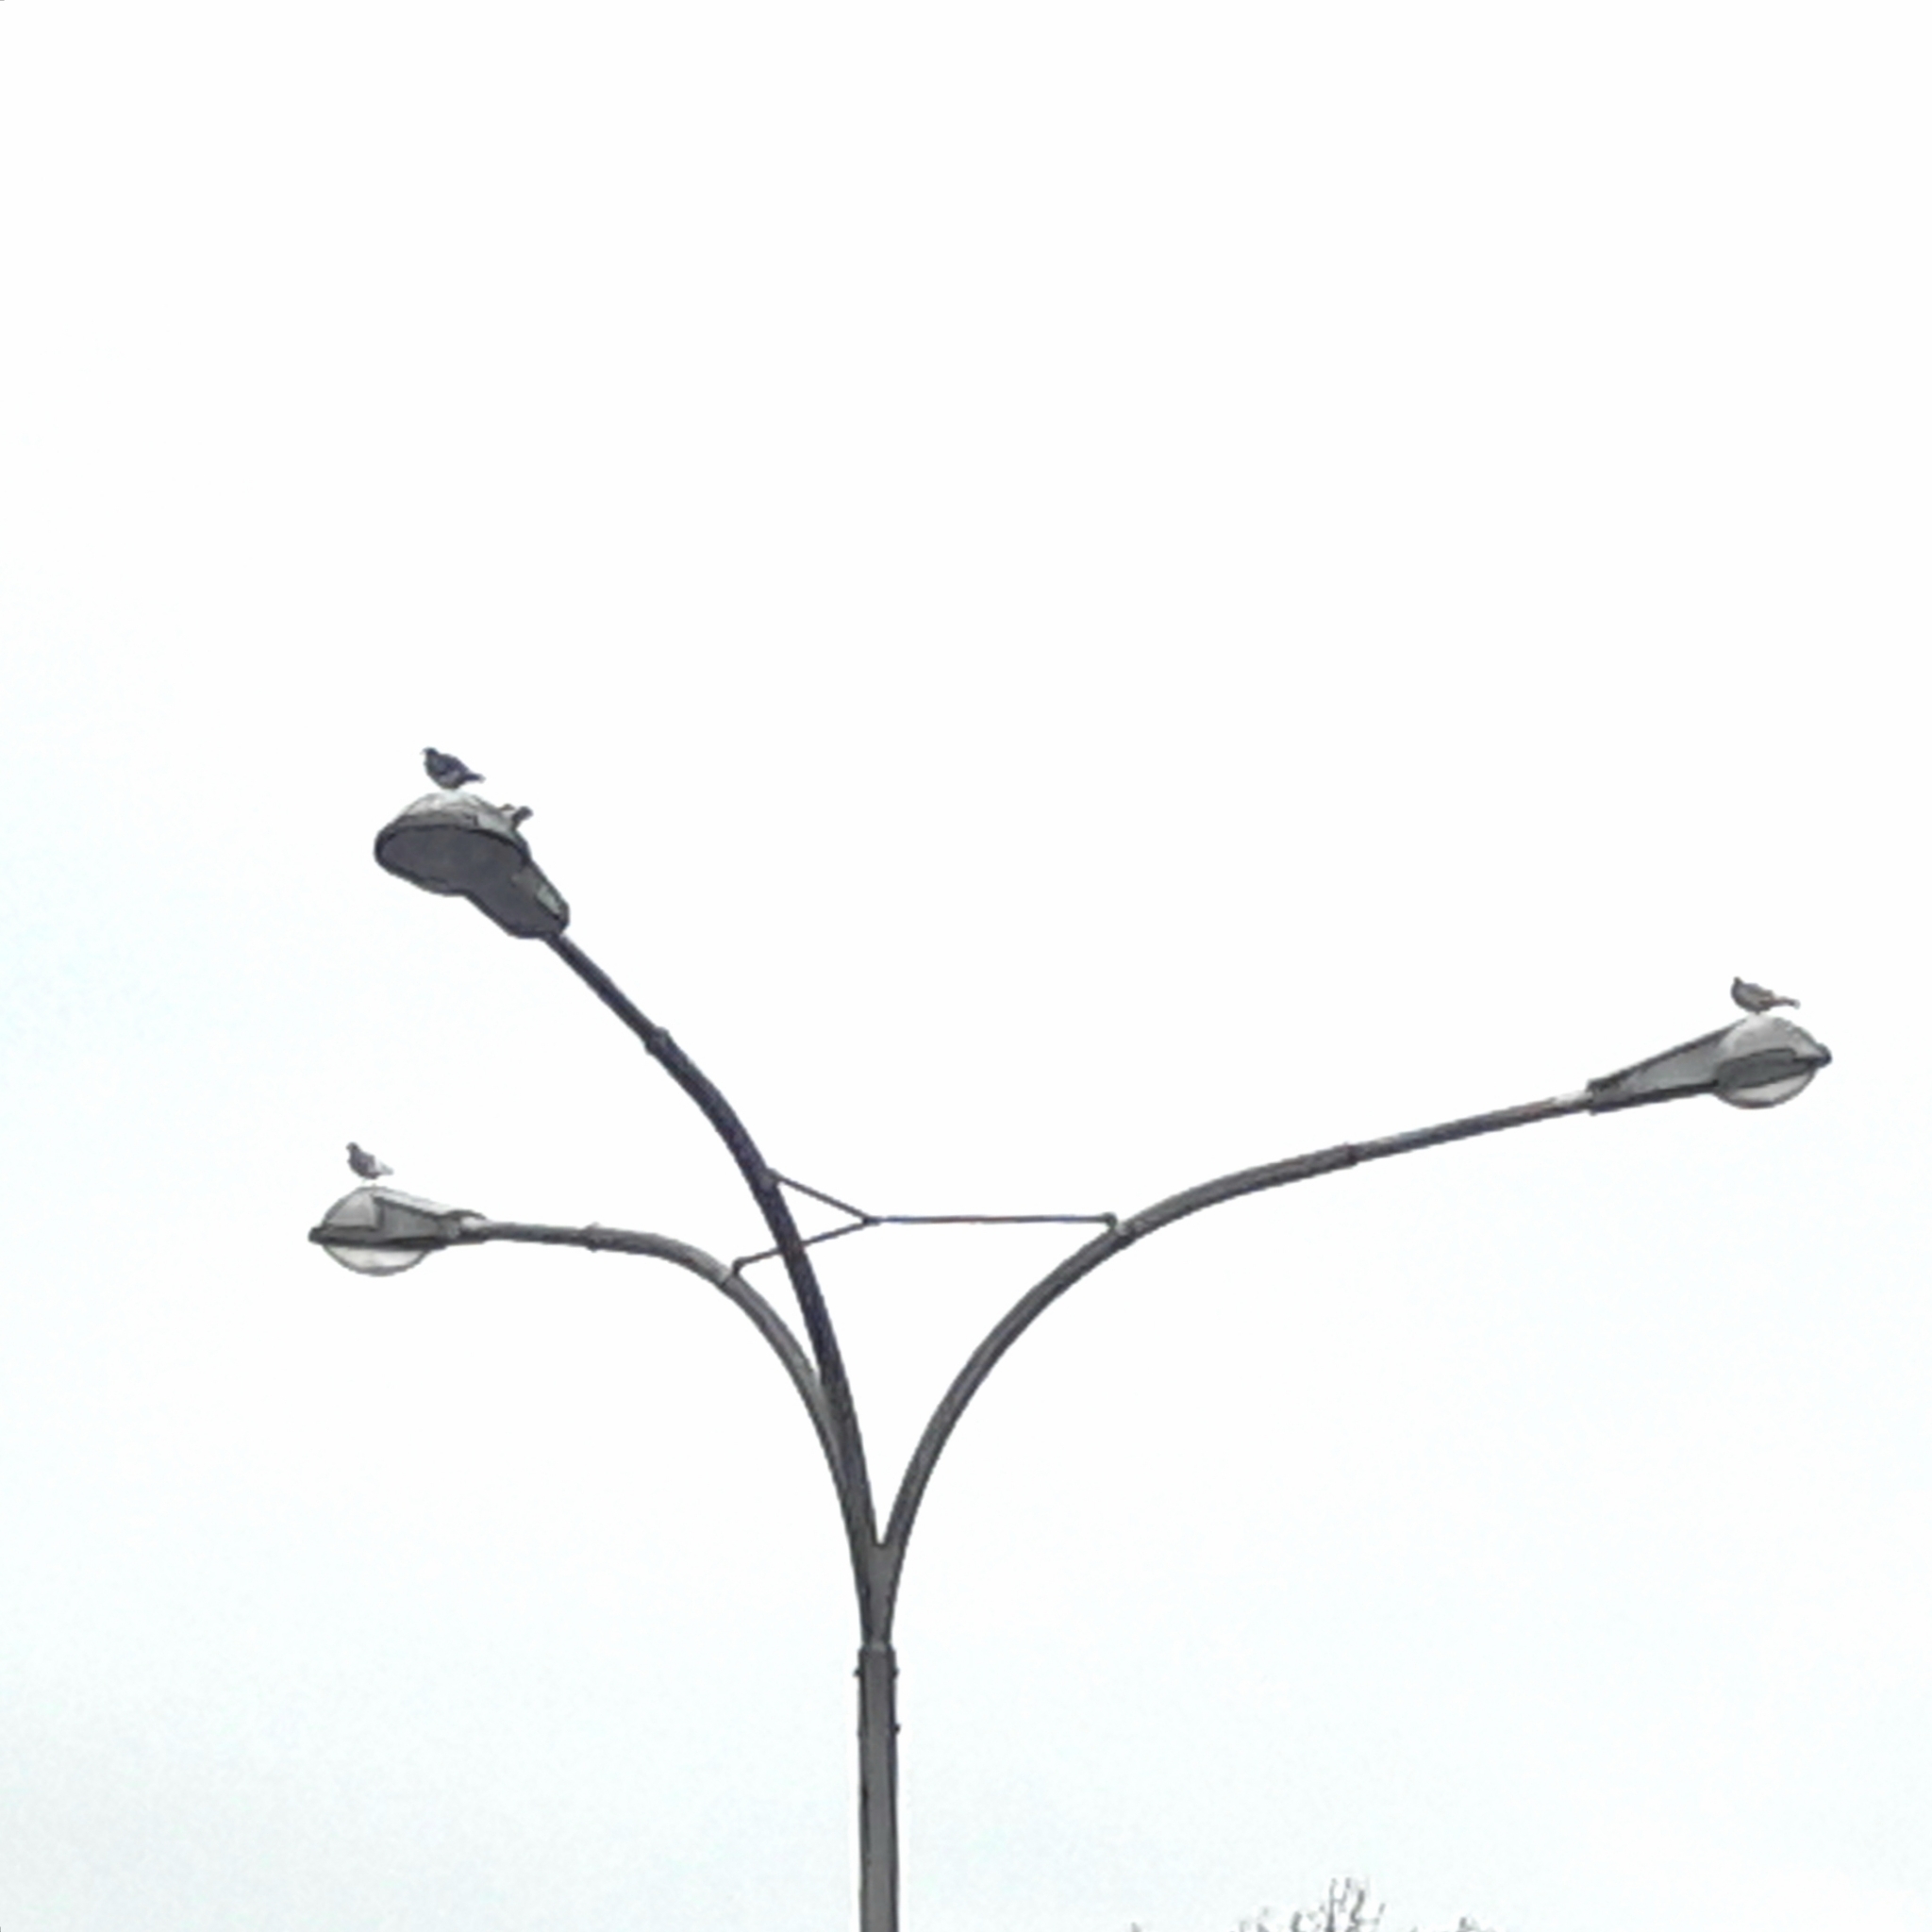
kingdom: Animalia
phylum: Chordata
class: Aves
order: Columbiformes
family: Columbidae
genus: Columba
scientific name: Columba livia
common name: Rock pigeon
